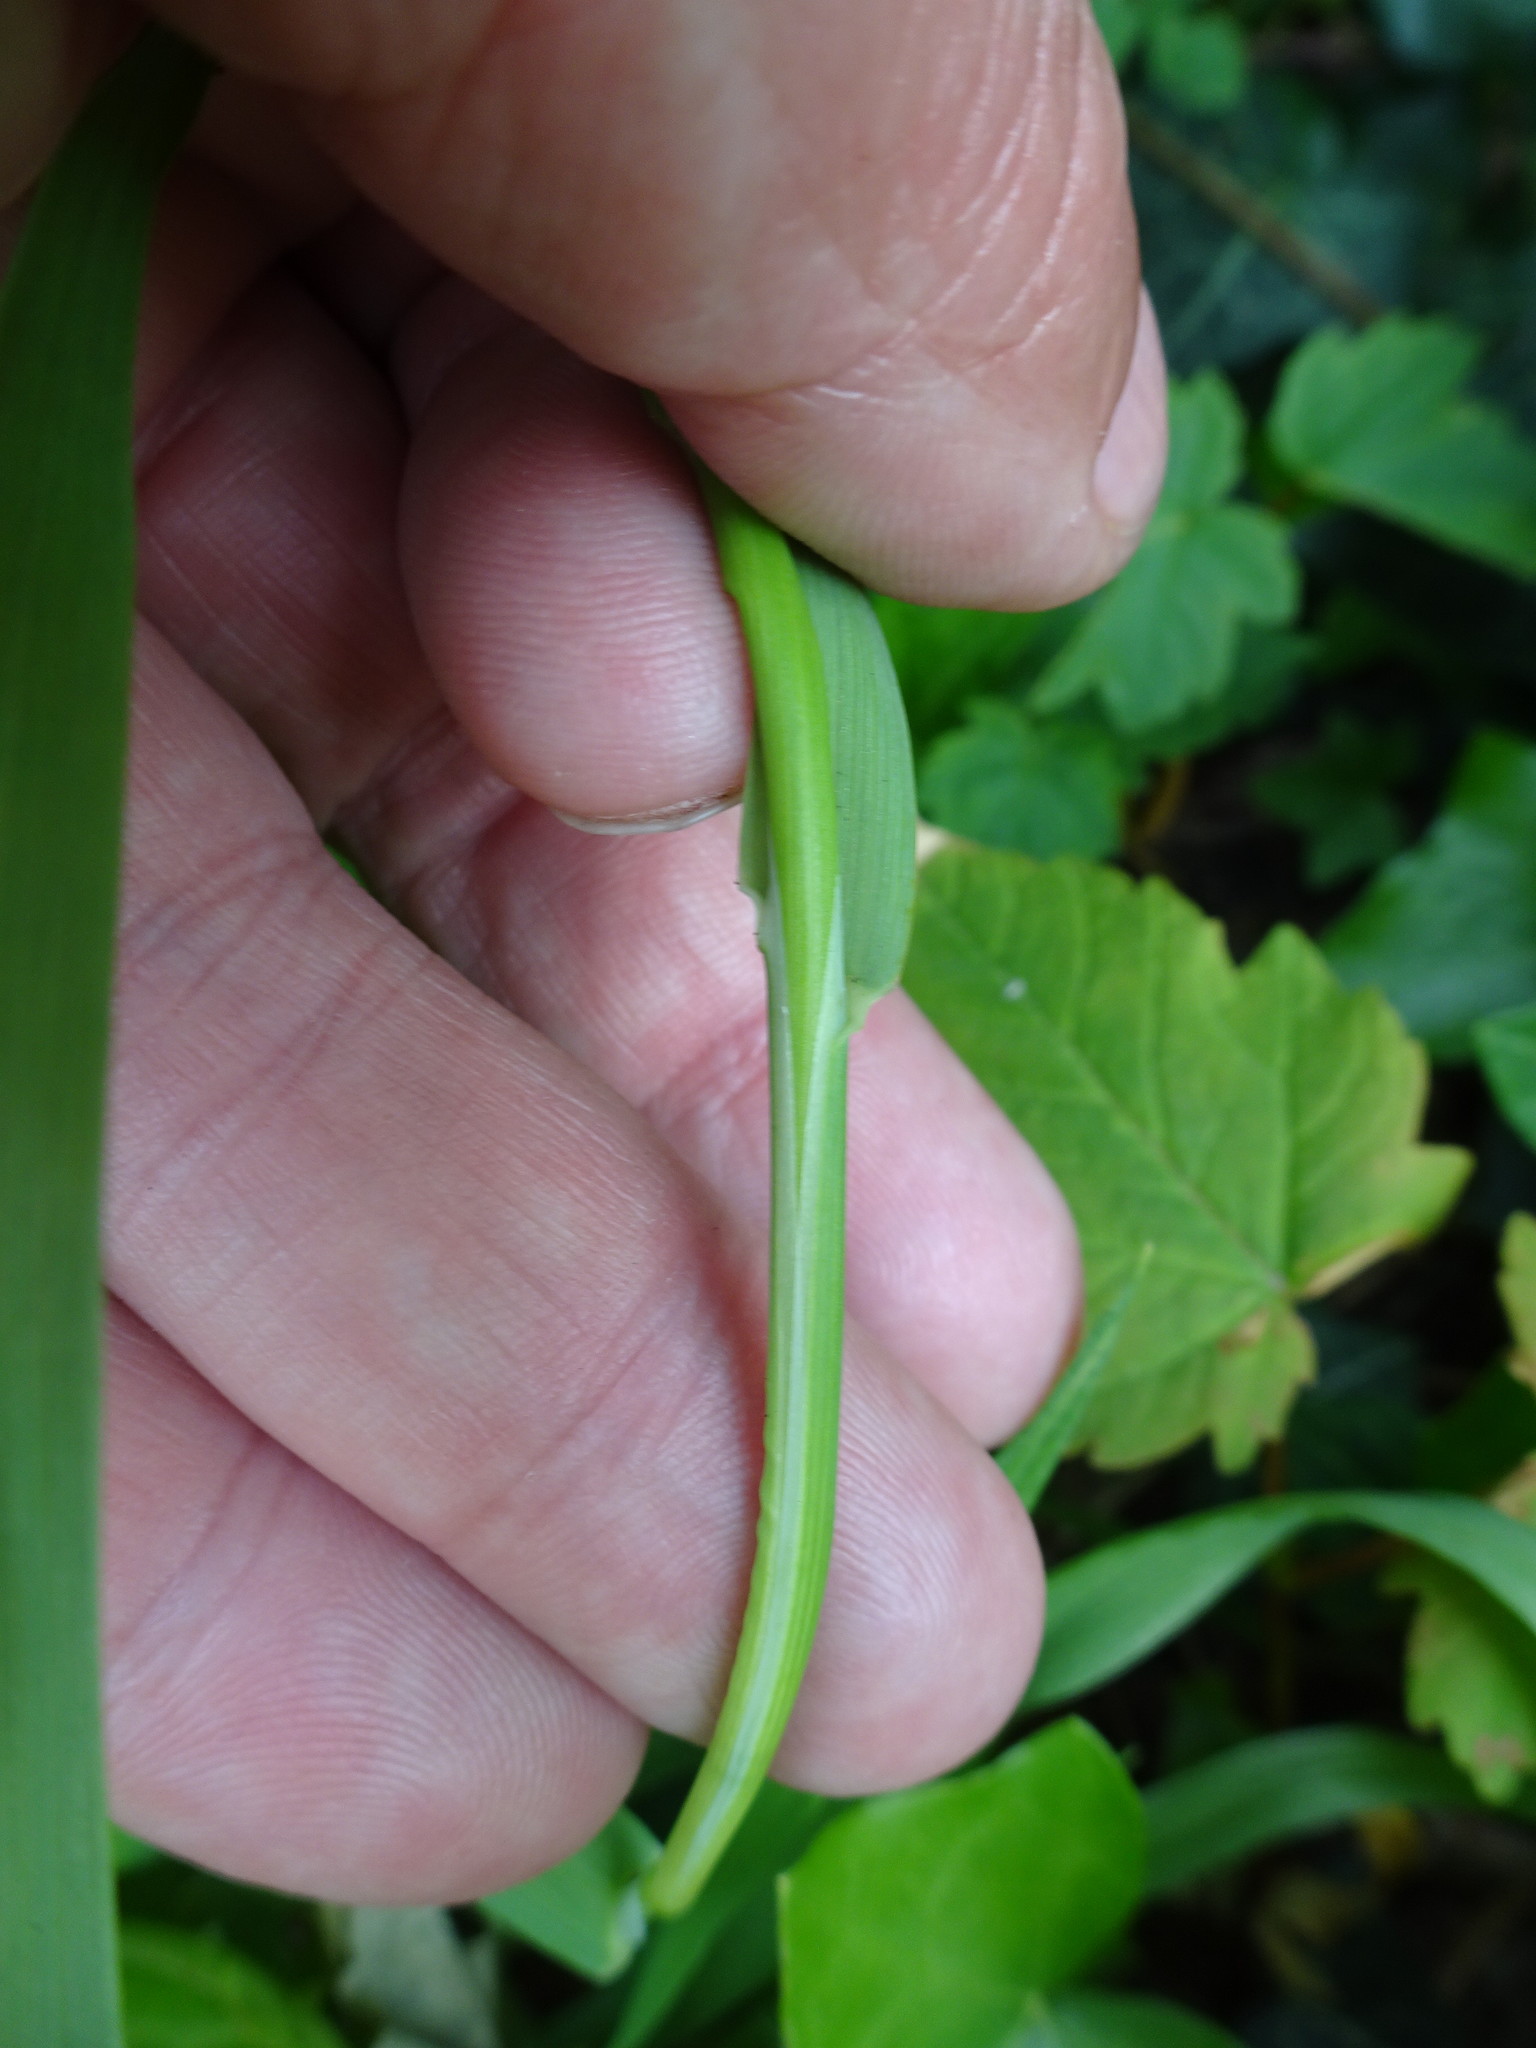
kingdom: Plantae
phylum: Tracheophyta
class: Liliopsida
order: Poales
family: Poaceae
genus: Briza
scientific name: Briza maxima
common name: Big quakinggrass
